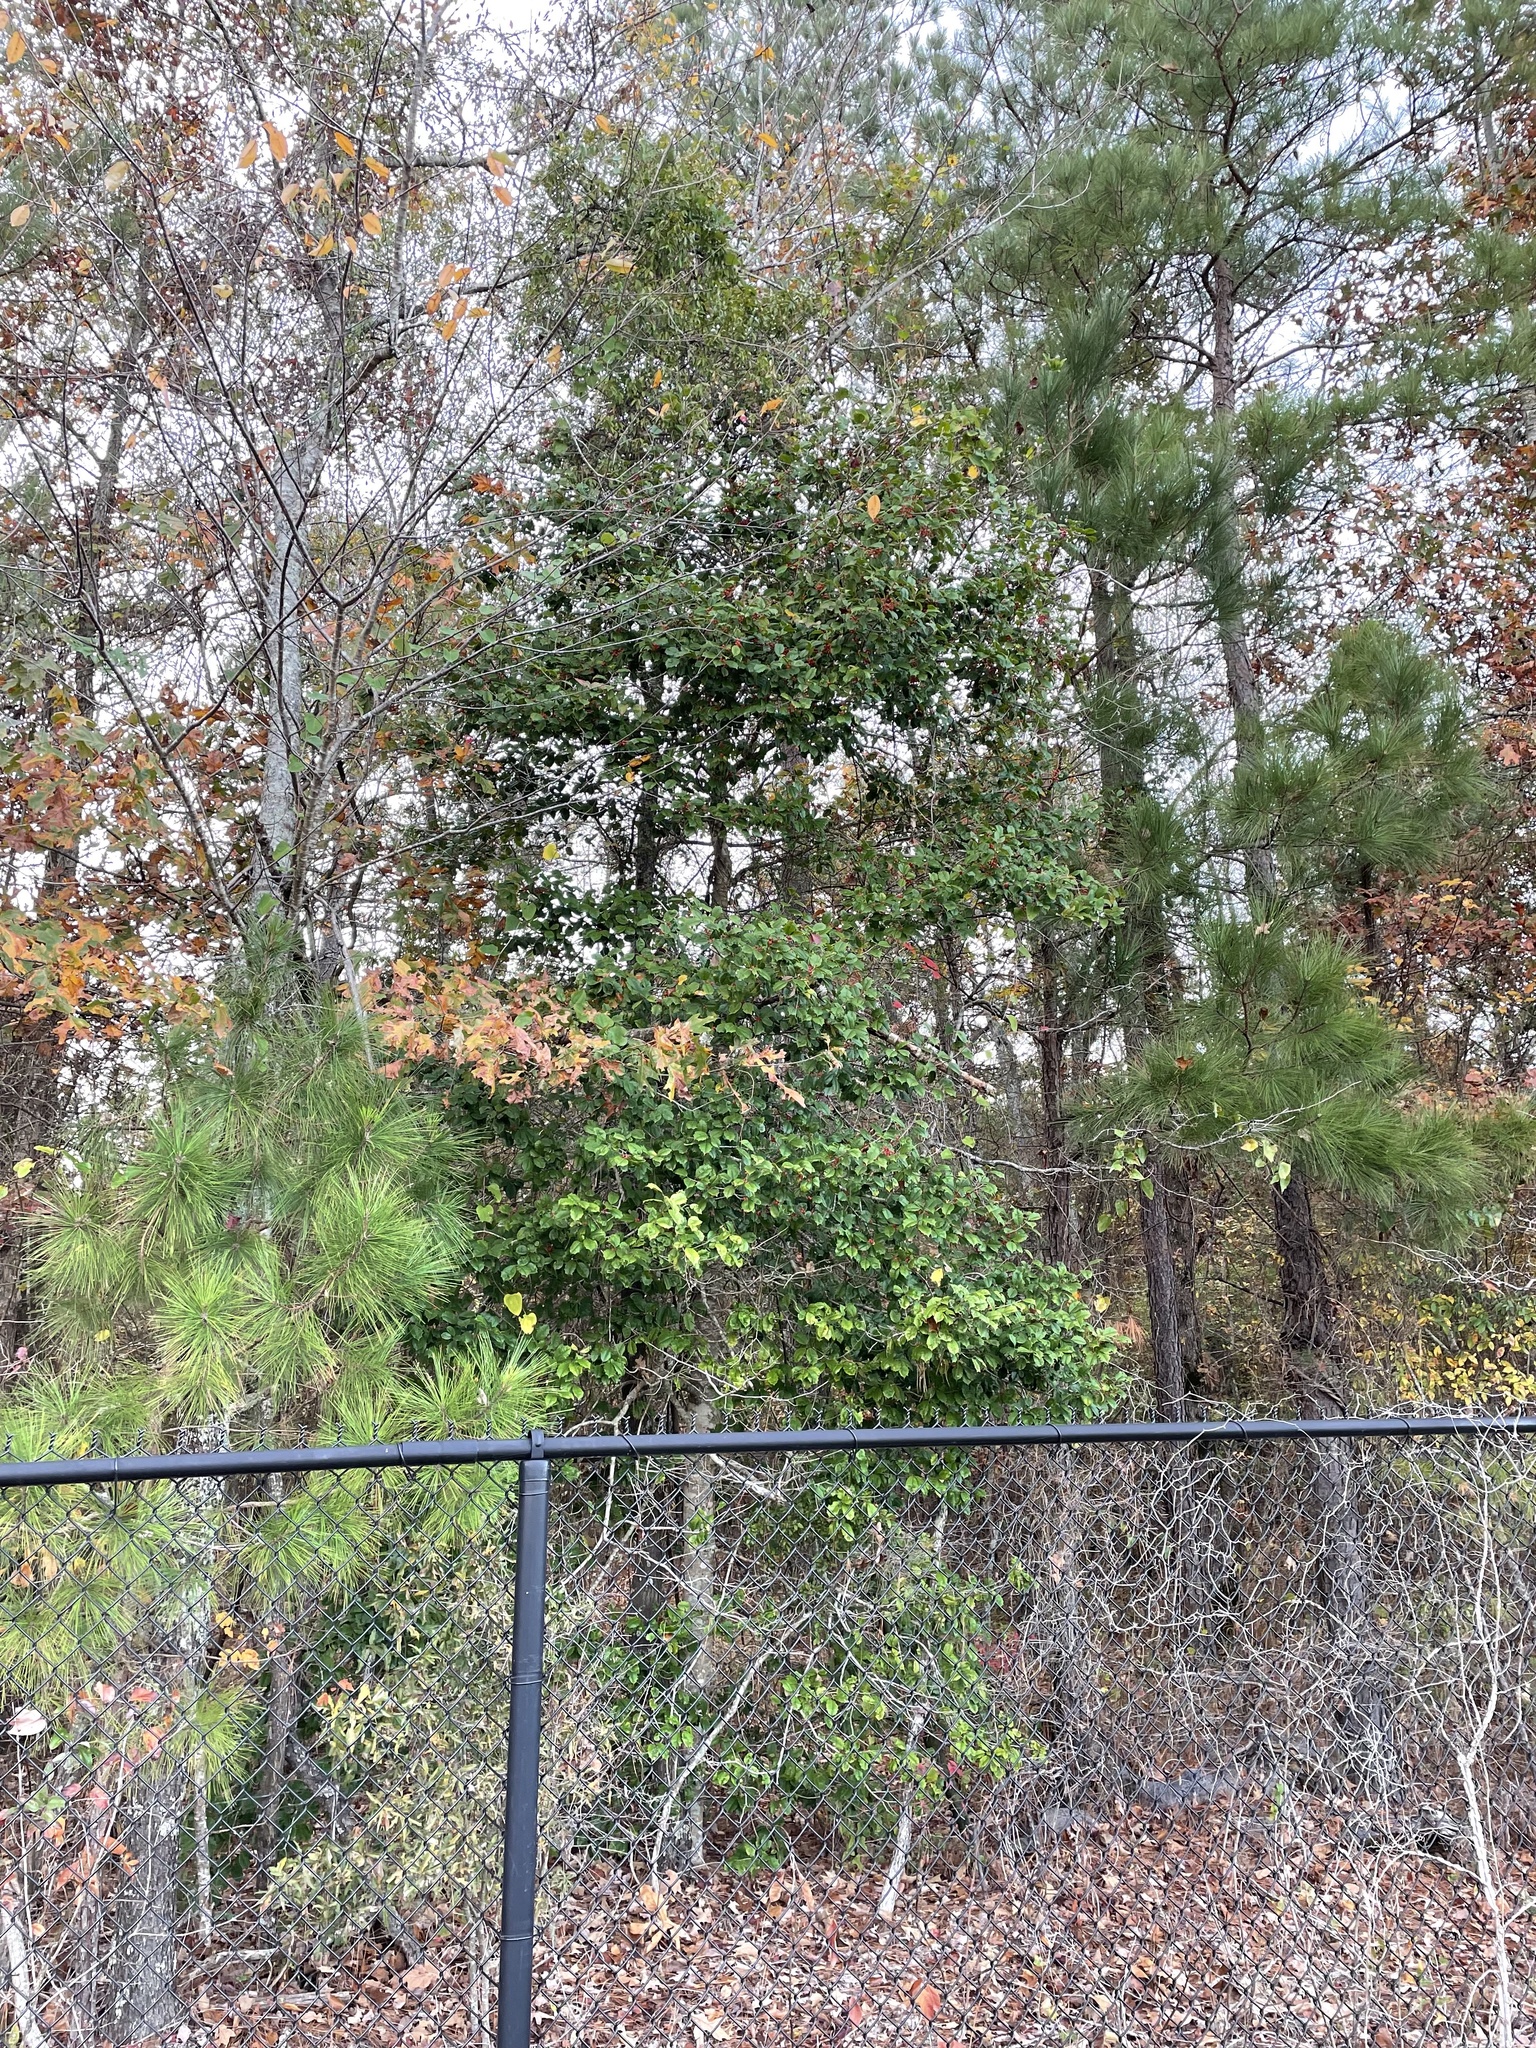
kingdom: Plantae
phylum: Tracheophyta
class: Magnoliopsida
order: Aquifoliales
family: Aquifoliaceae
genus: Ilex
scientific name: Ilex opaca
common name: American holly
